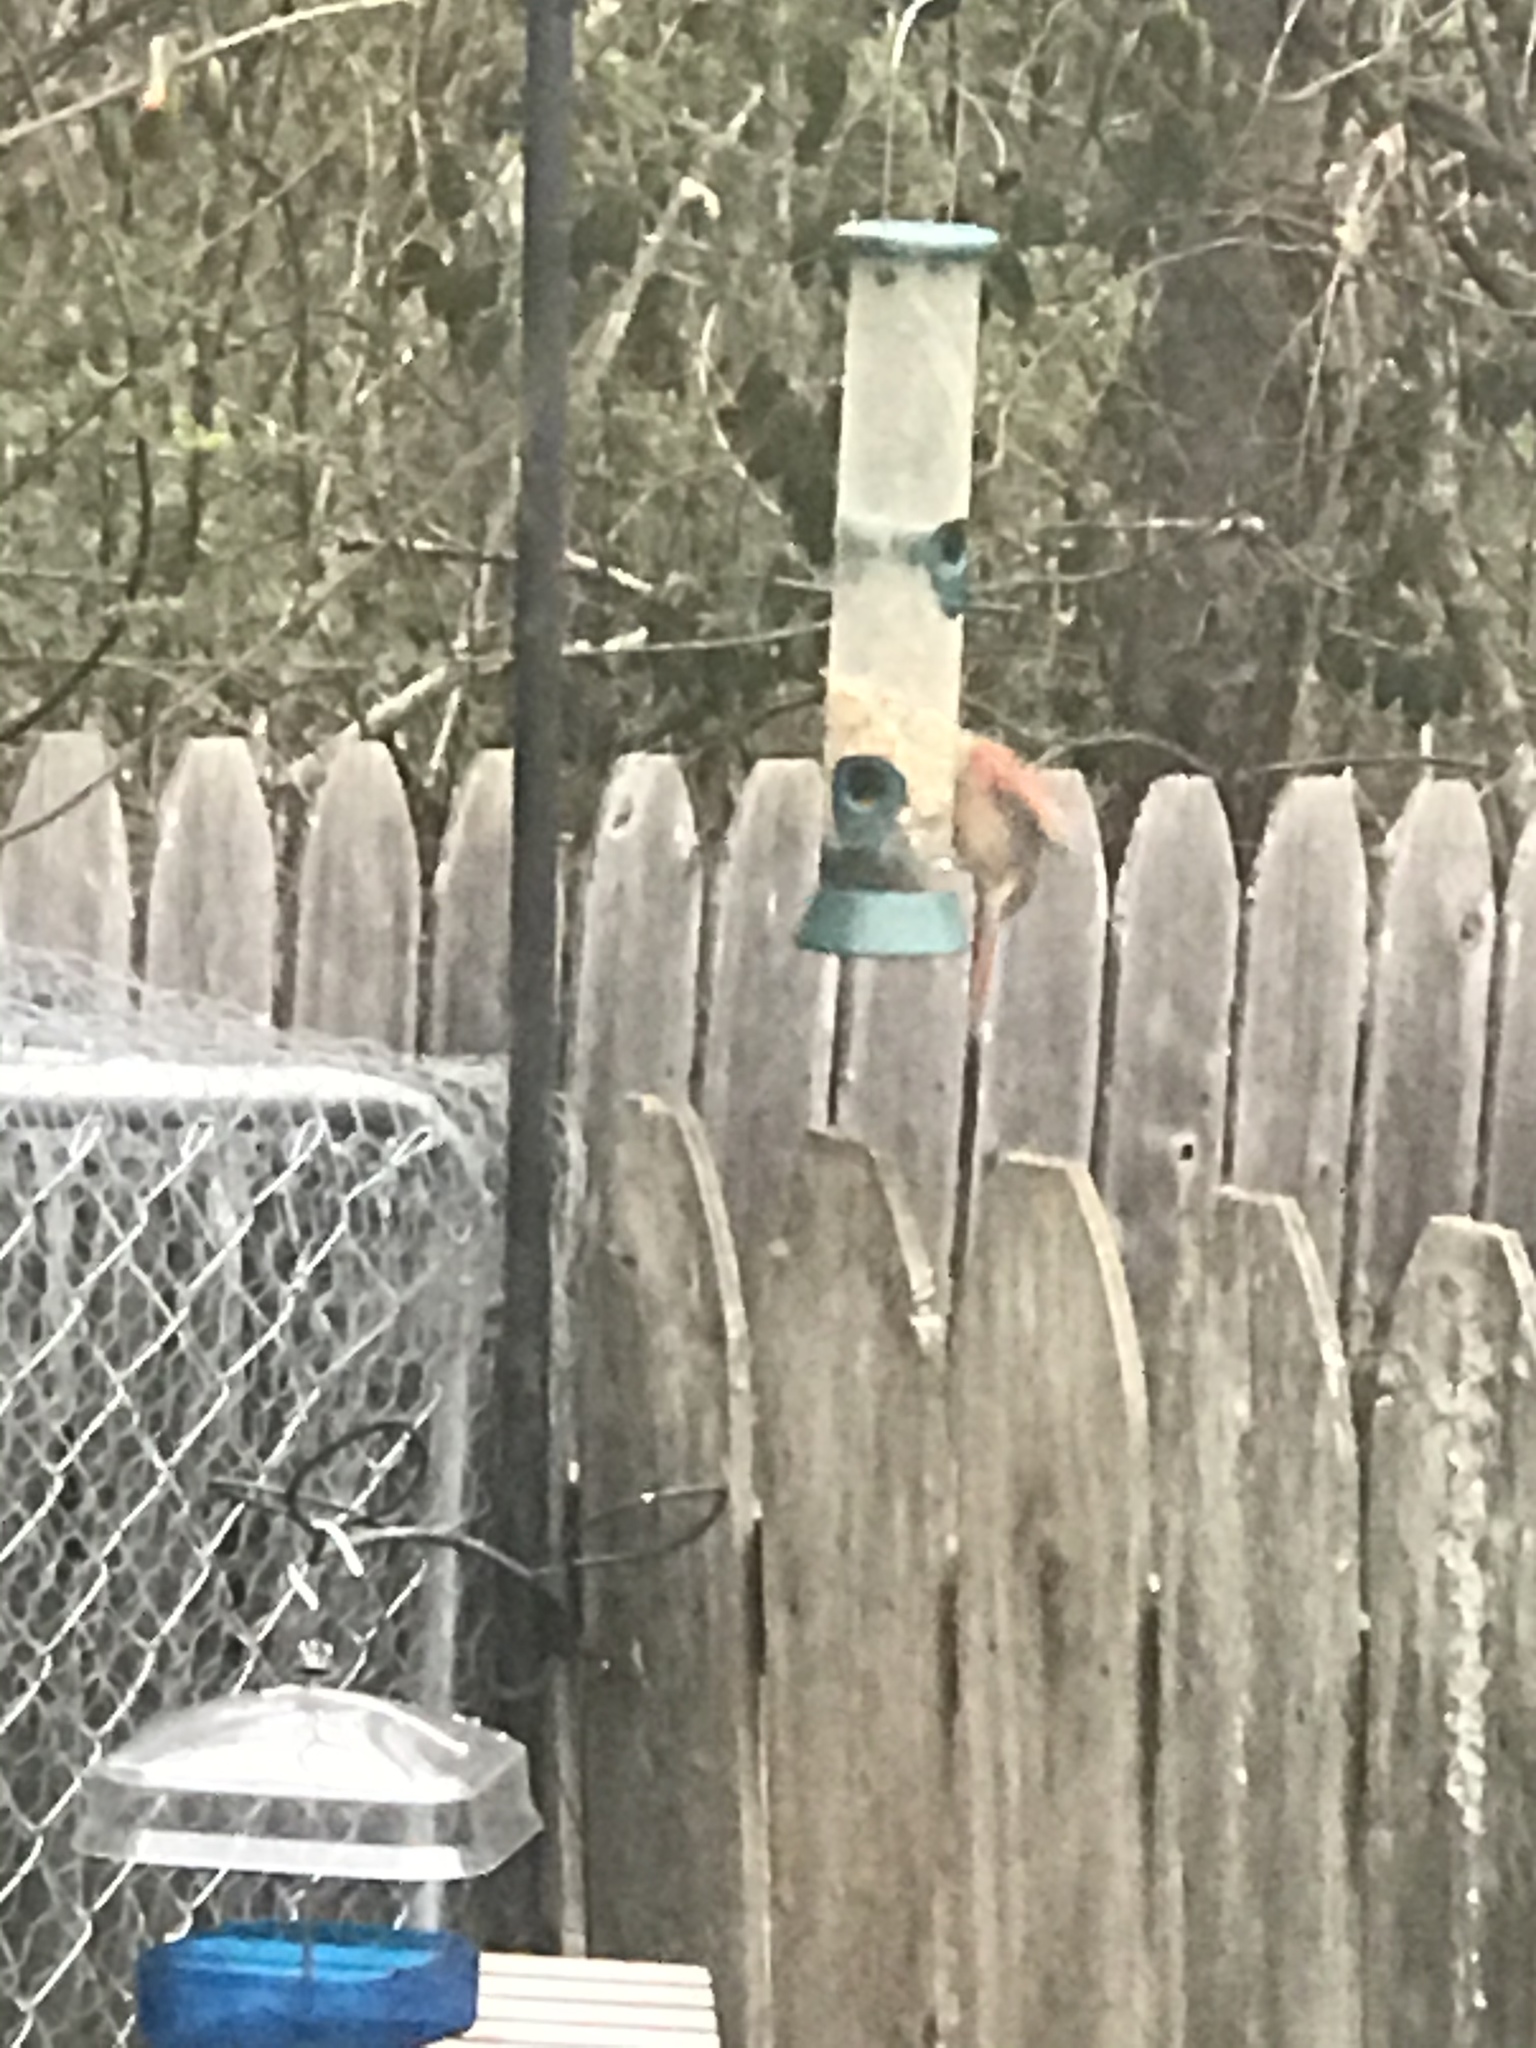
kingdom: Animalia
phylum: Chordata
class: Aves
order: Passeriformes
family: Cardinalidae
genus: Cardinalis
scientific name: Cardinalis cardinalis
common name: Northern cardinal
